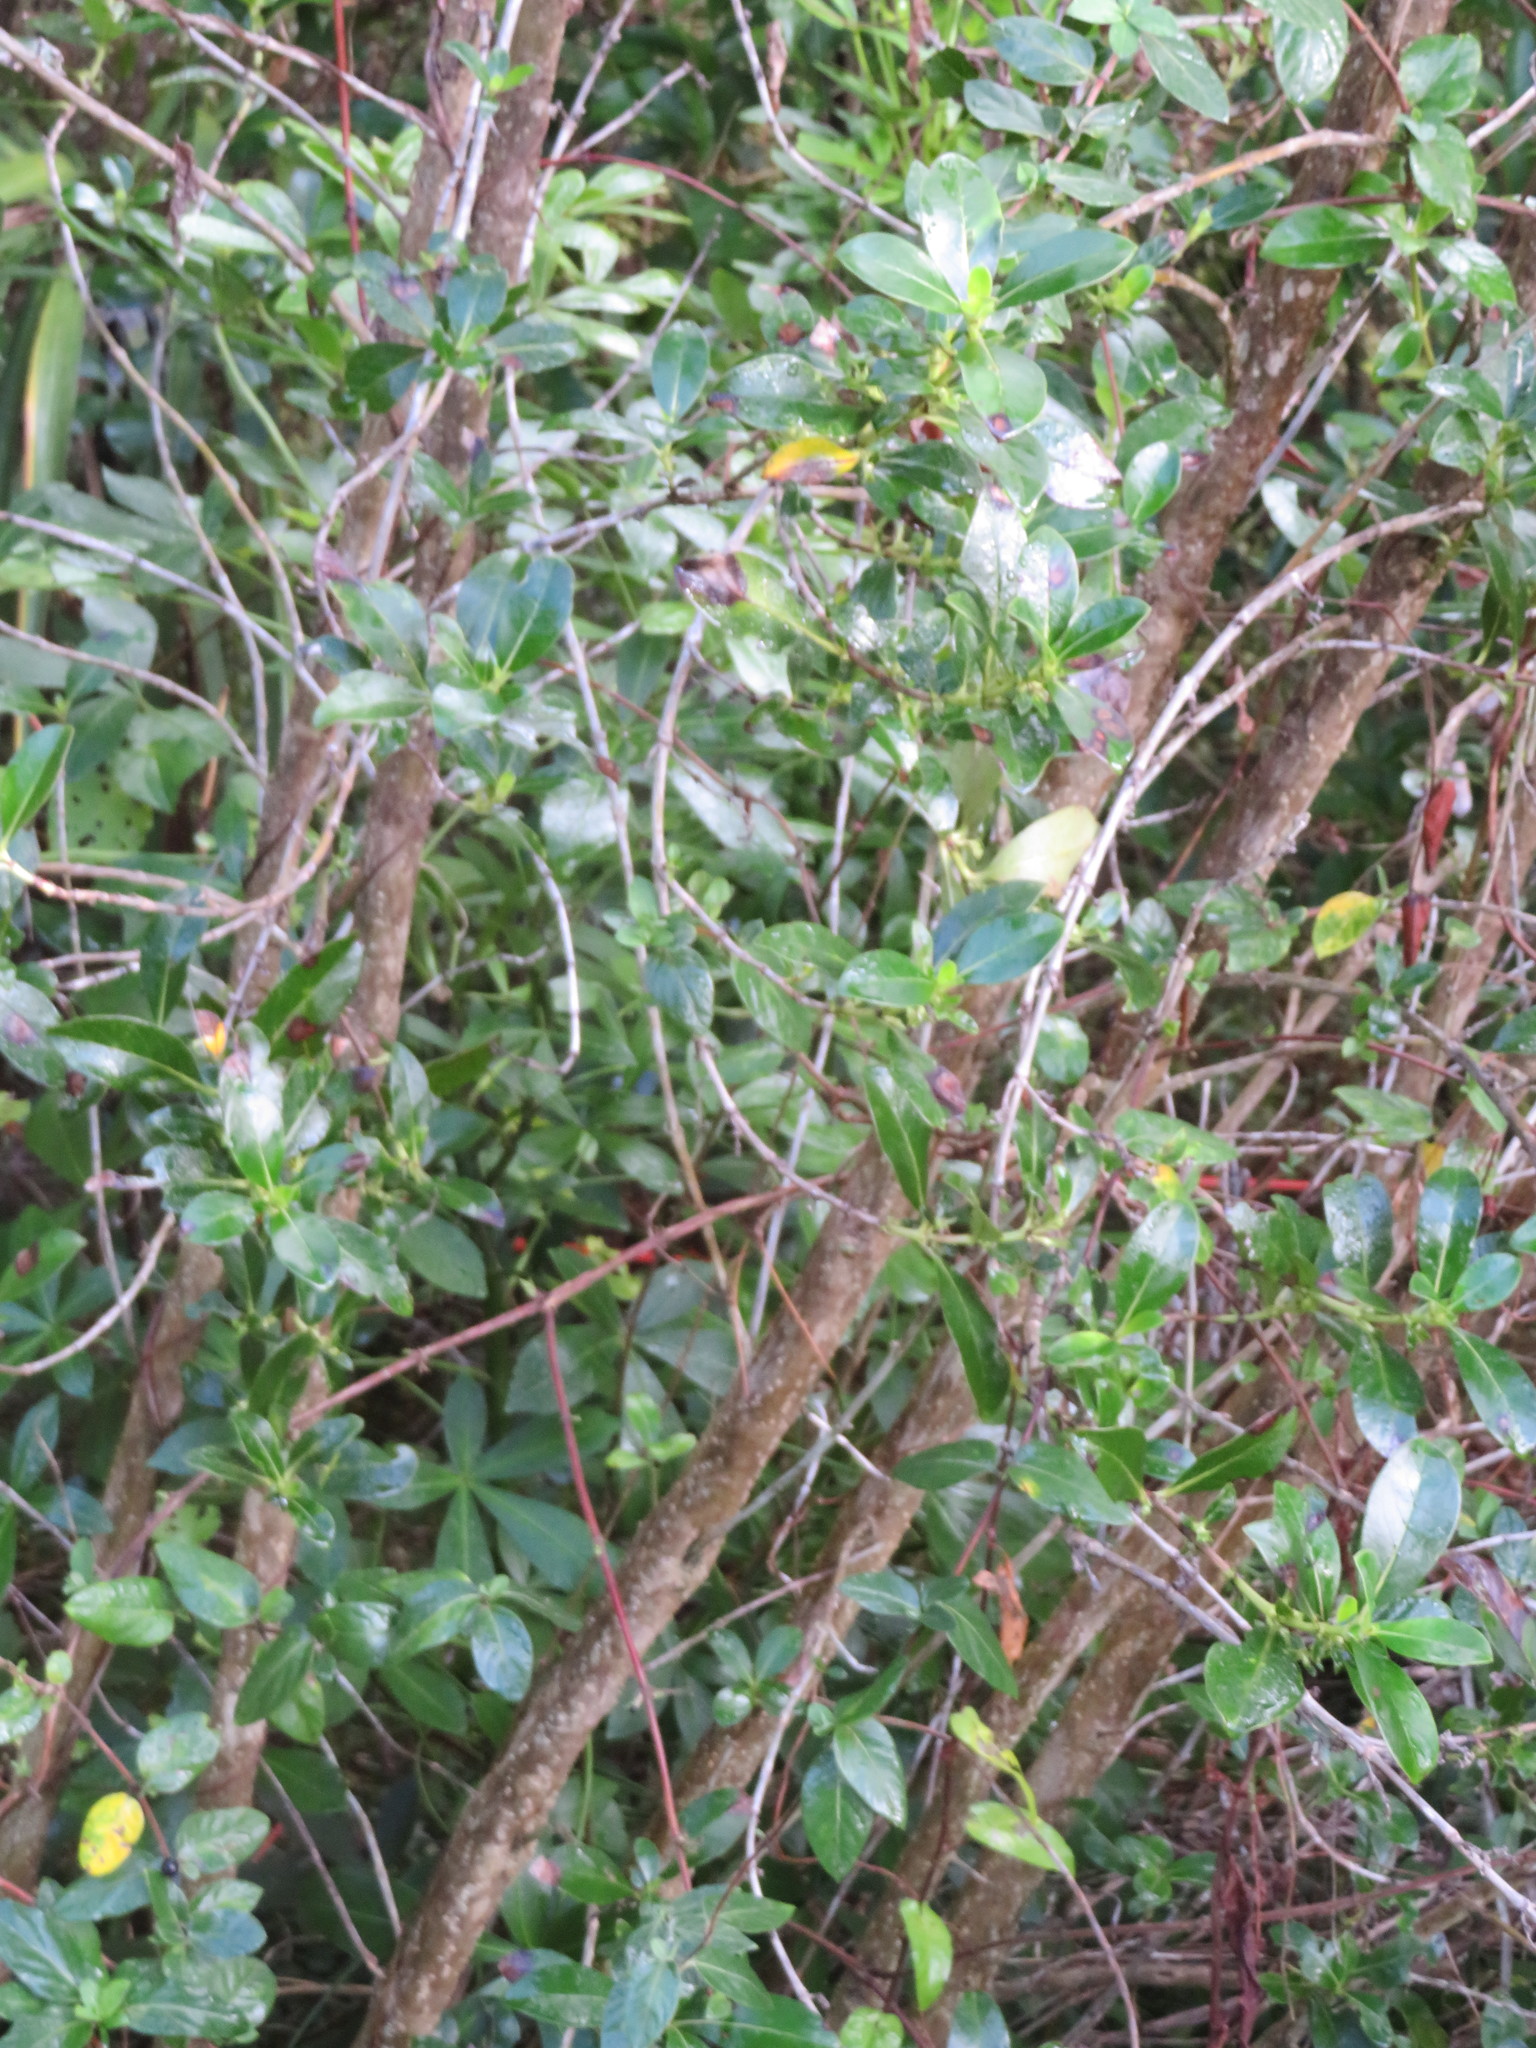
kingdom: Plantae
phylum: Tracheophyta
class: Magnoliopsida
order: Gentianales
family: Rubiaceae
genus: Coprosma
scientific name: Coprosma robusta
